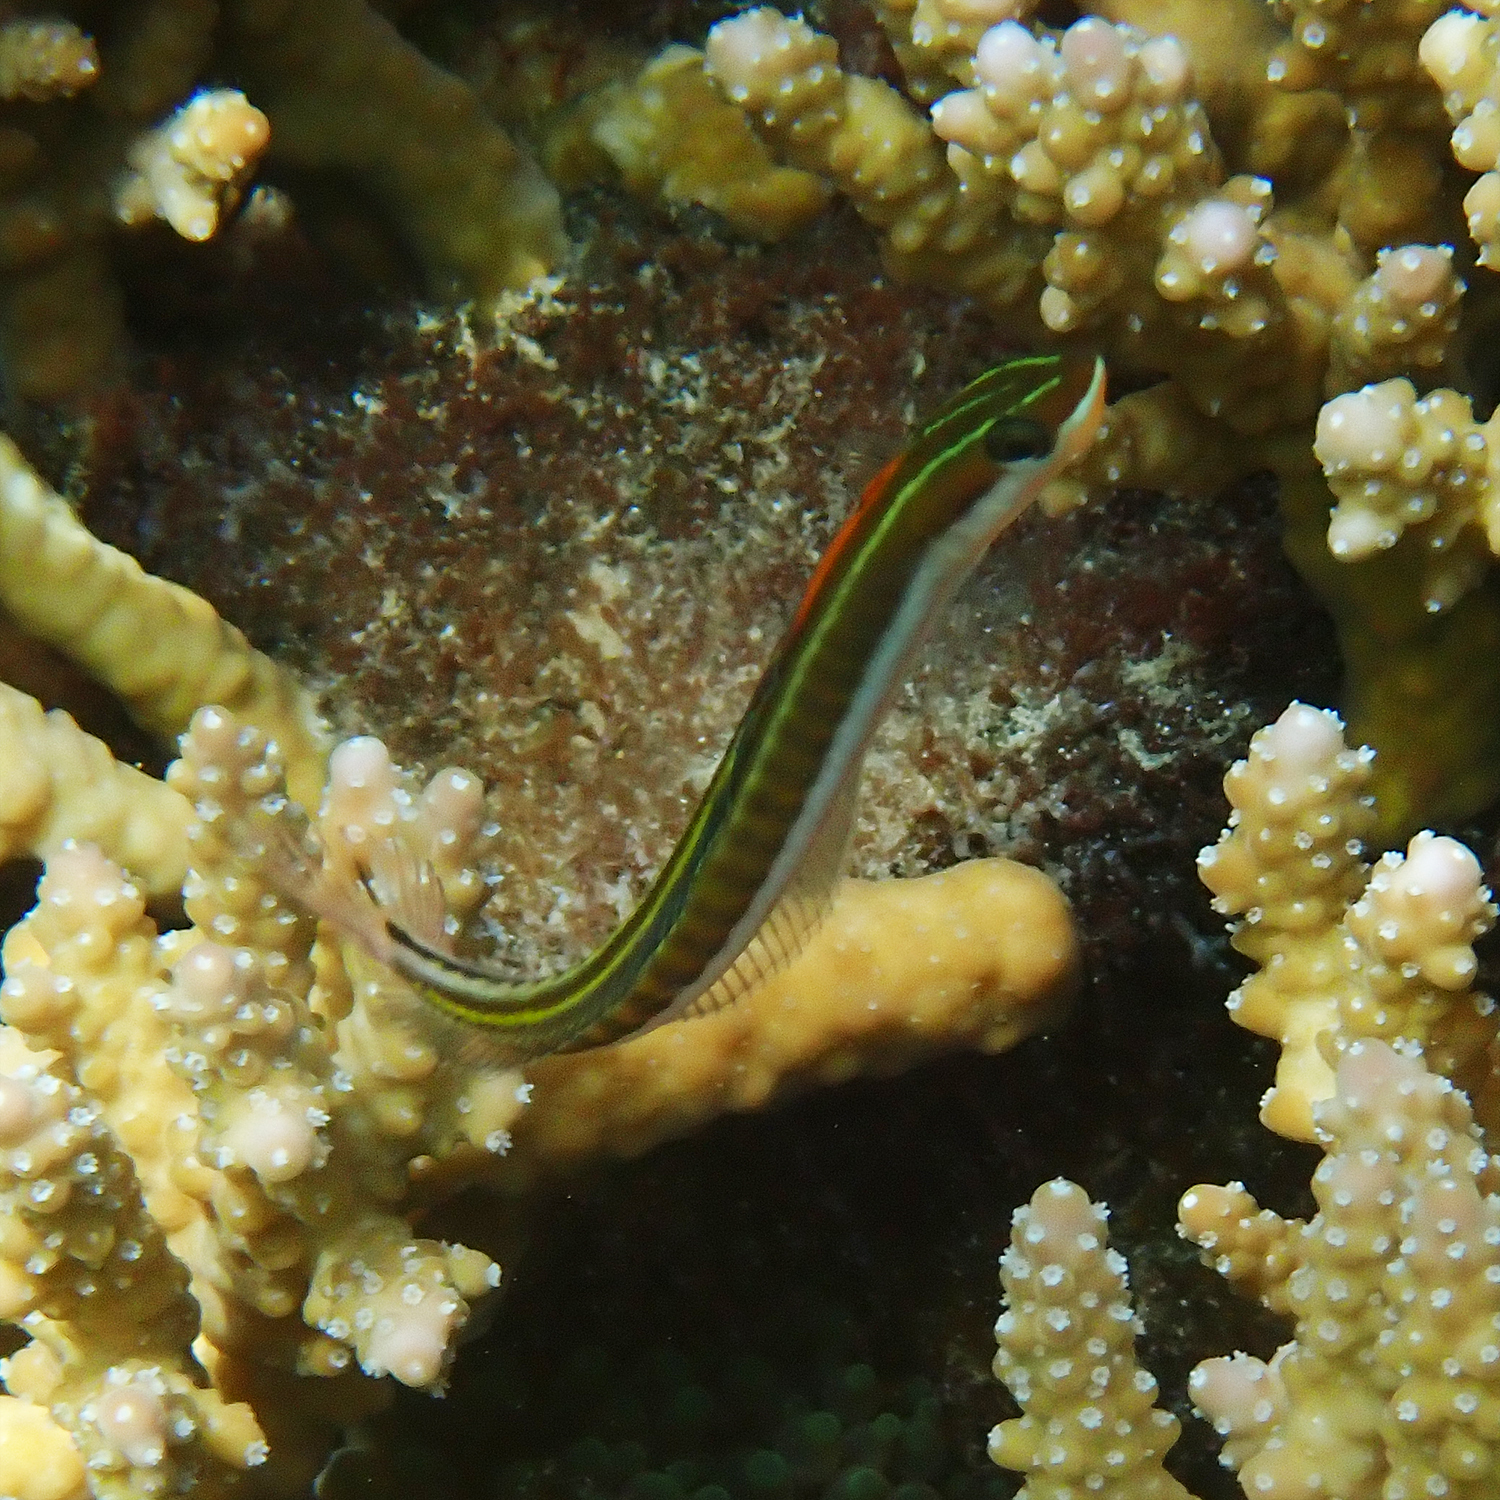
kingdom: Animalia
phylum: Chordata
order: Perciformes
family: Blenniidae
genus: Plagiotremus
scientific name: Plagiotremus tapeinosoma
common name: Hit and run blenny
